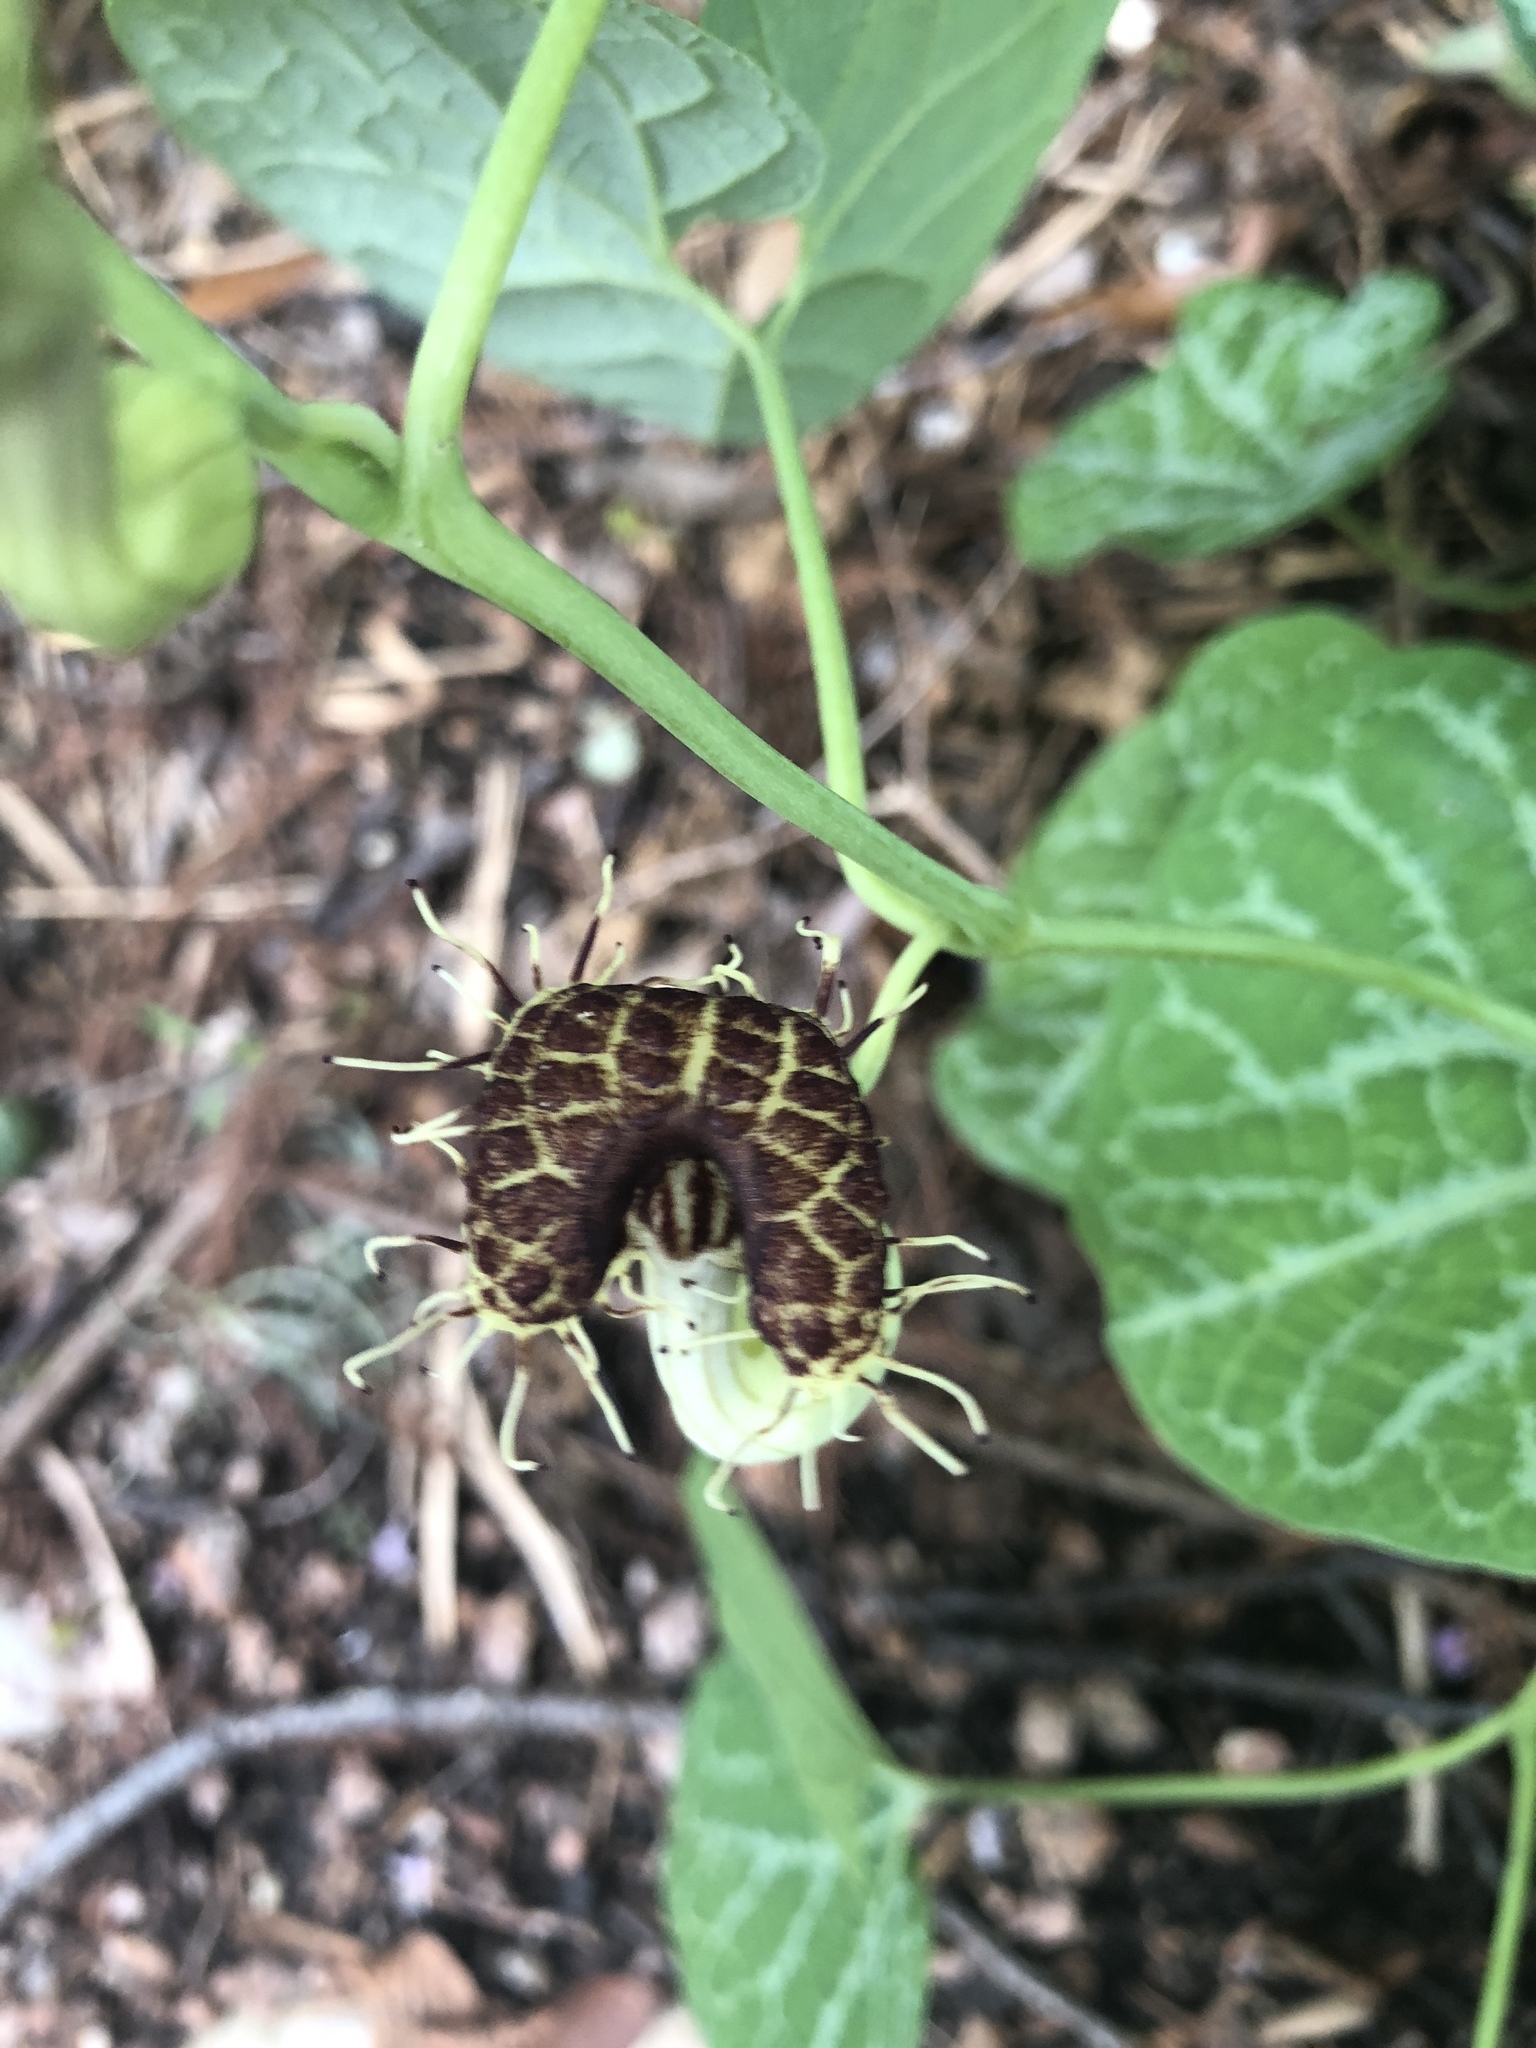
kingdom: Plantae
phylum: Tracheophyta
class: Magnoliopsida
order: Piperales
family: Aristolochiaceae
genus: Aristolochia
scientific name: Aristolochia fimbriata
